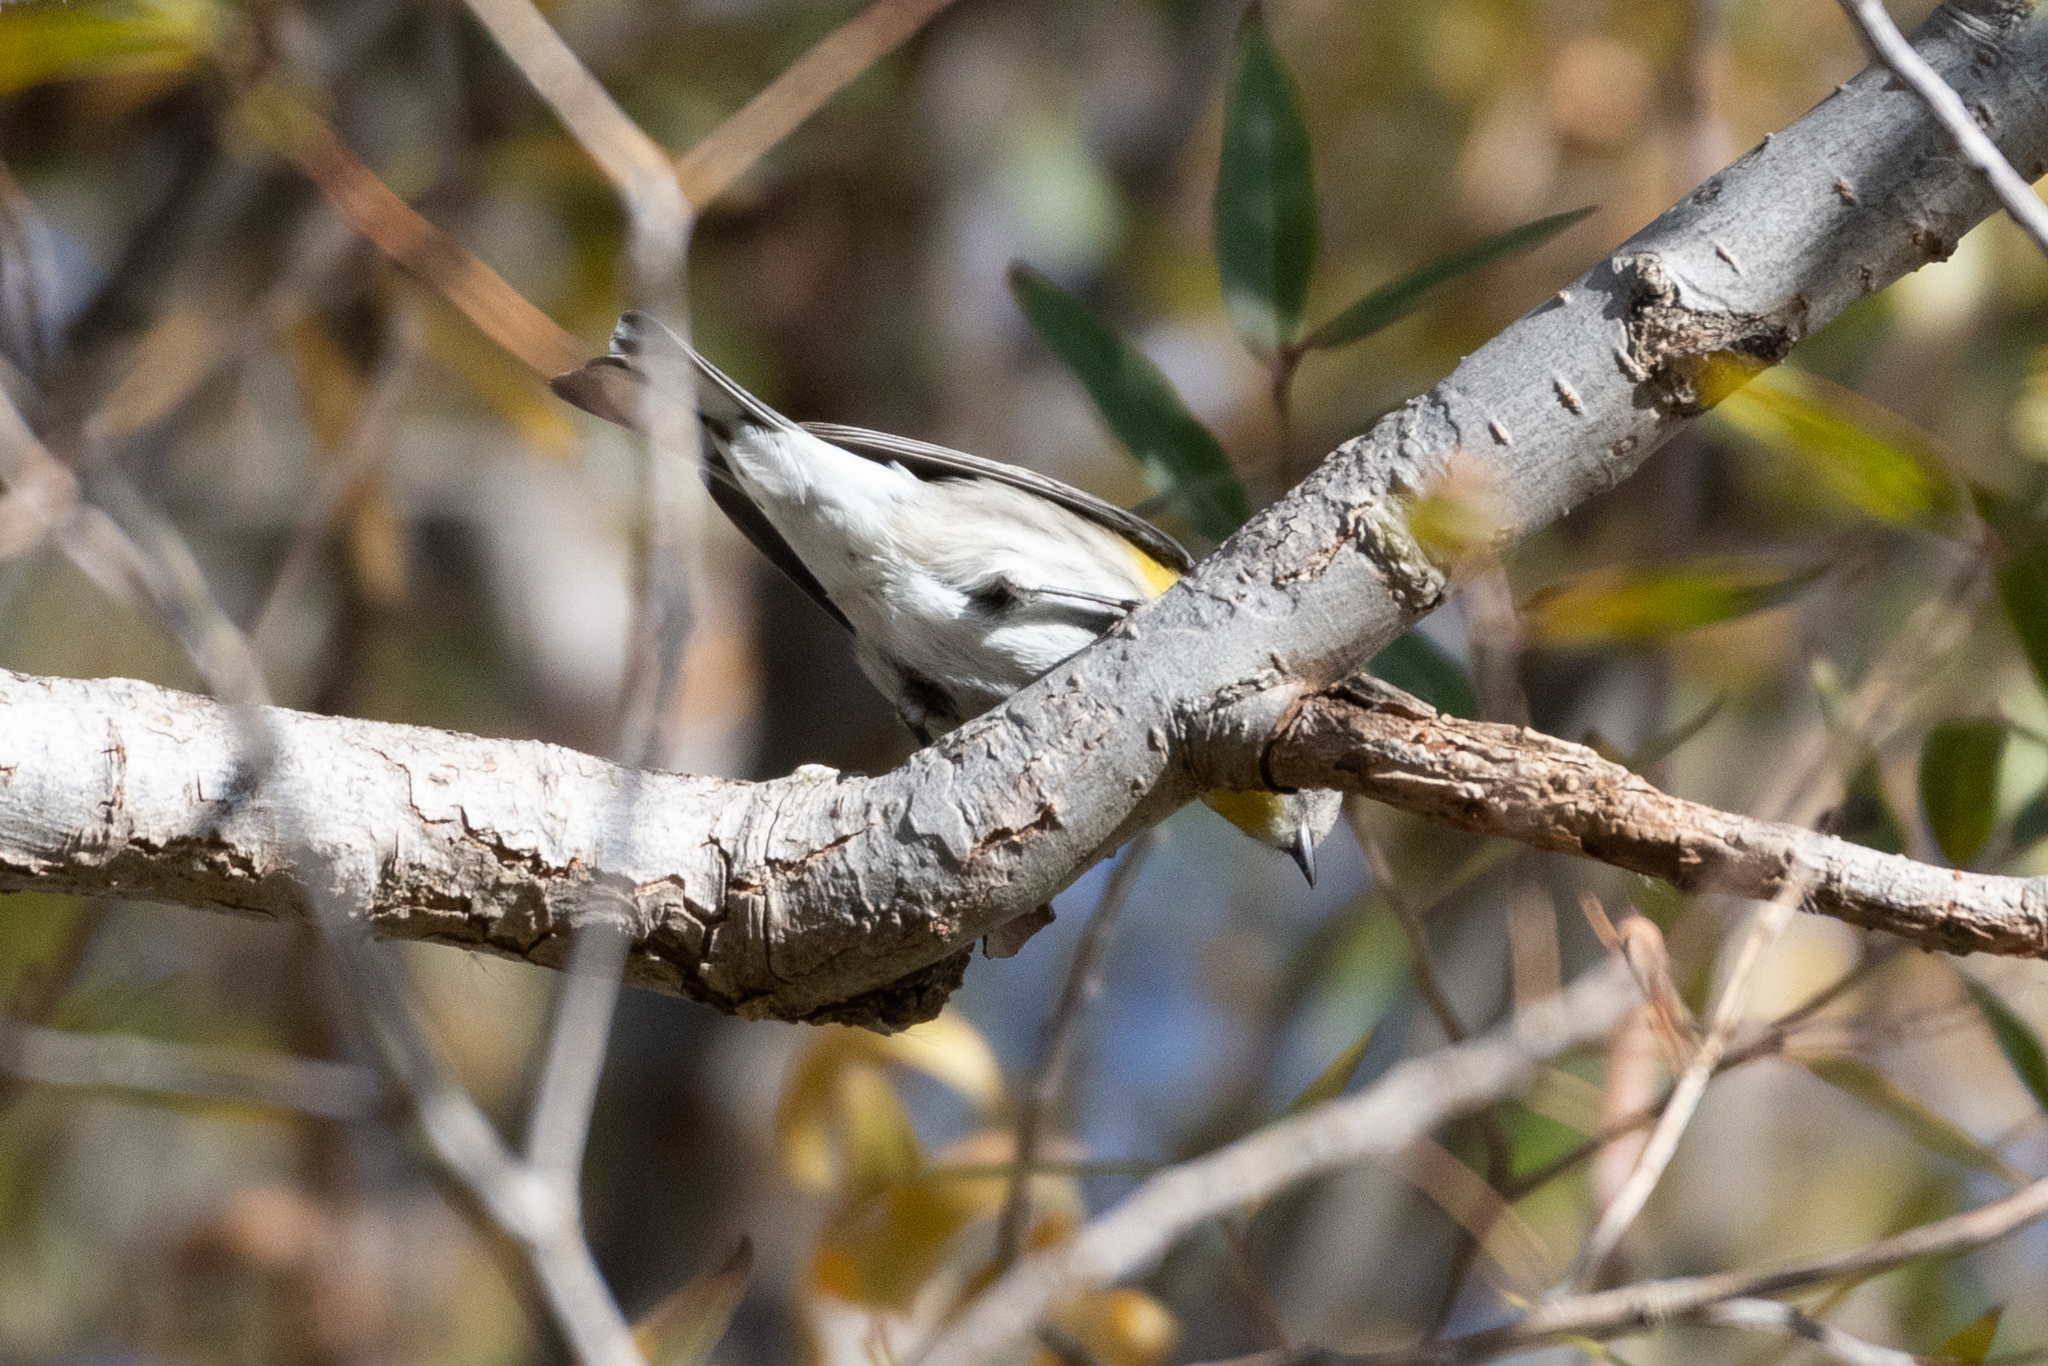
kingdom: Animalia
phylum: Chordata
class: Aves
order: Passeriformes
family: Parulidae
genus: Setophaga
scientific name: Setophaga coronata
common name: Myrtle warbler
